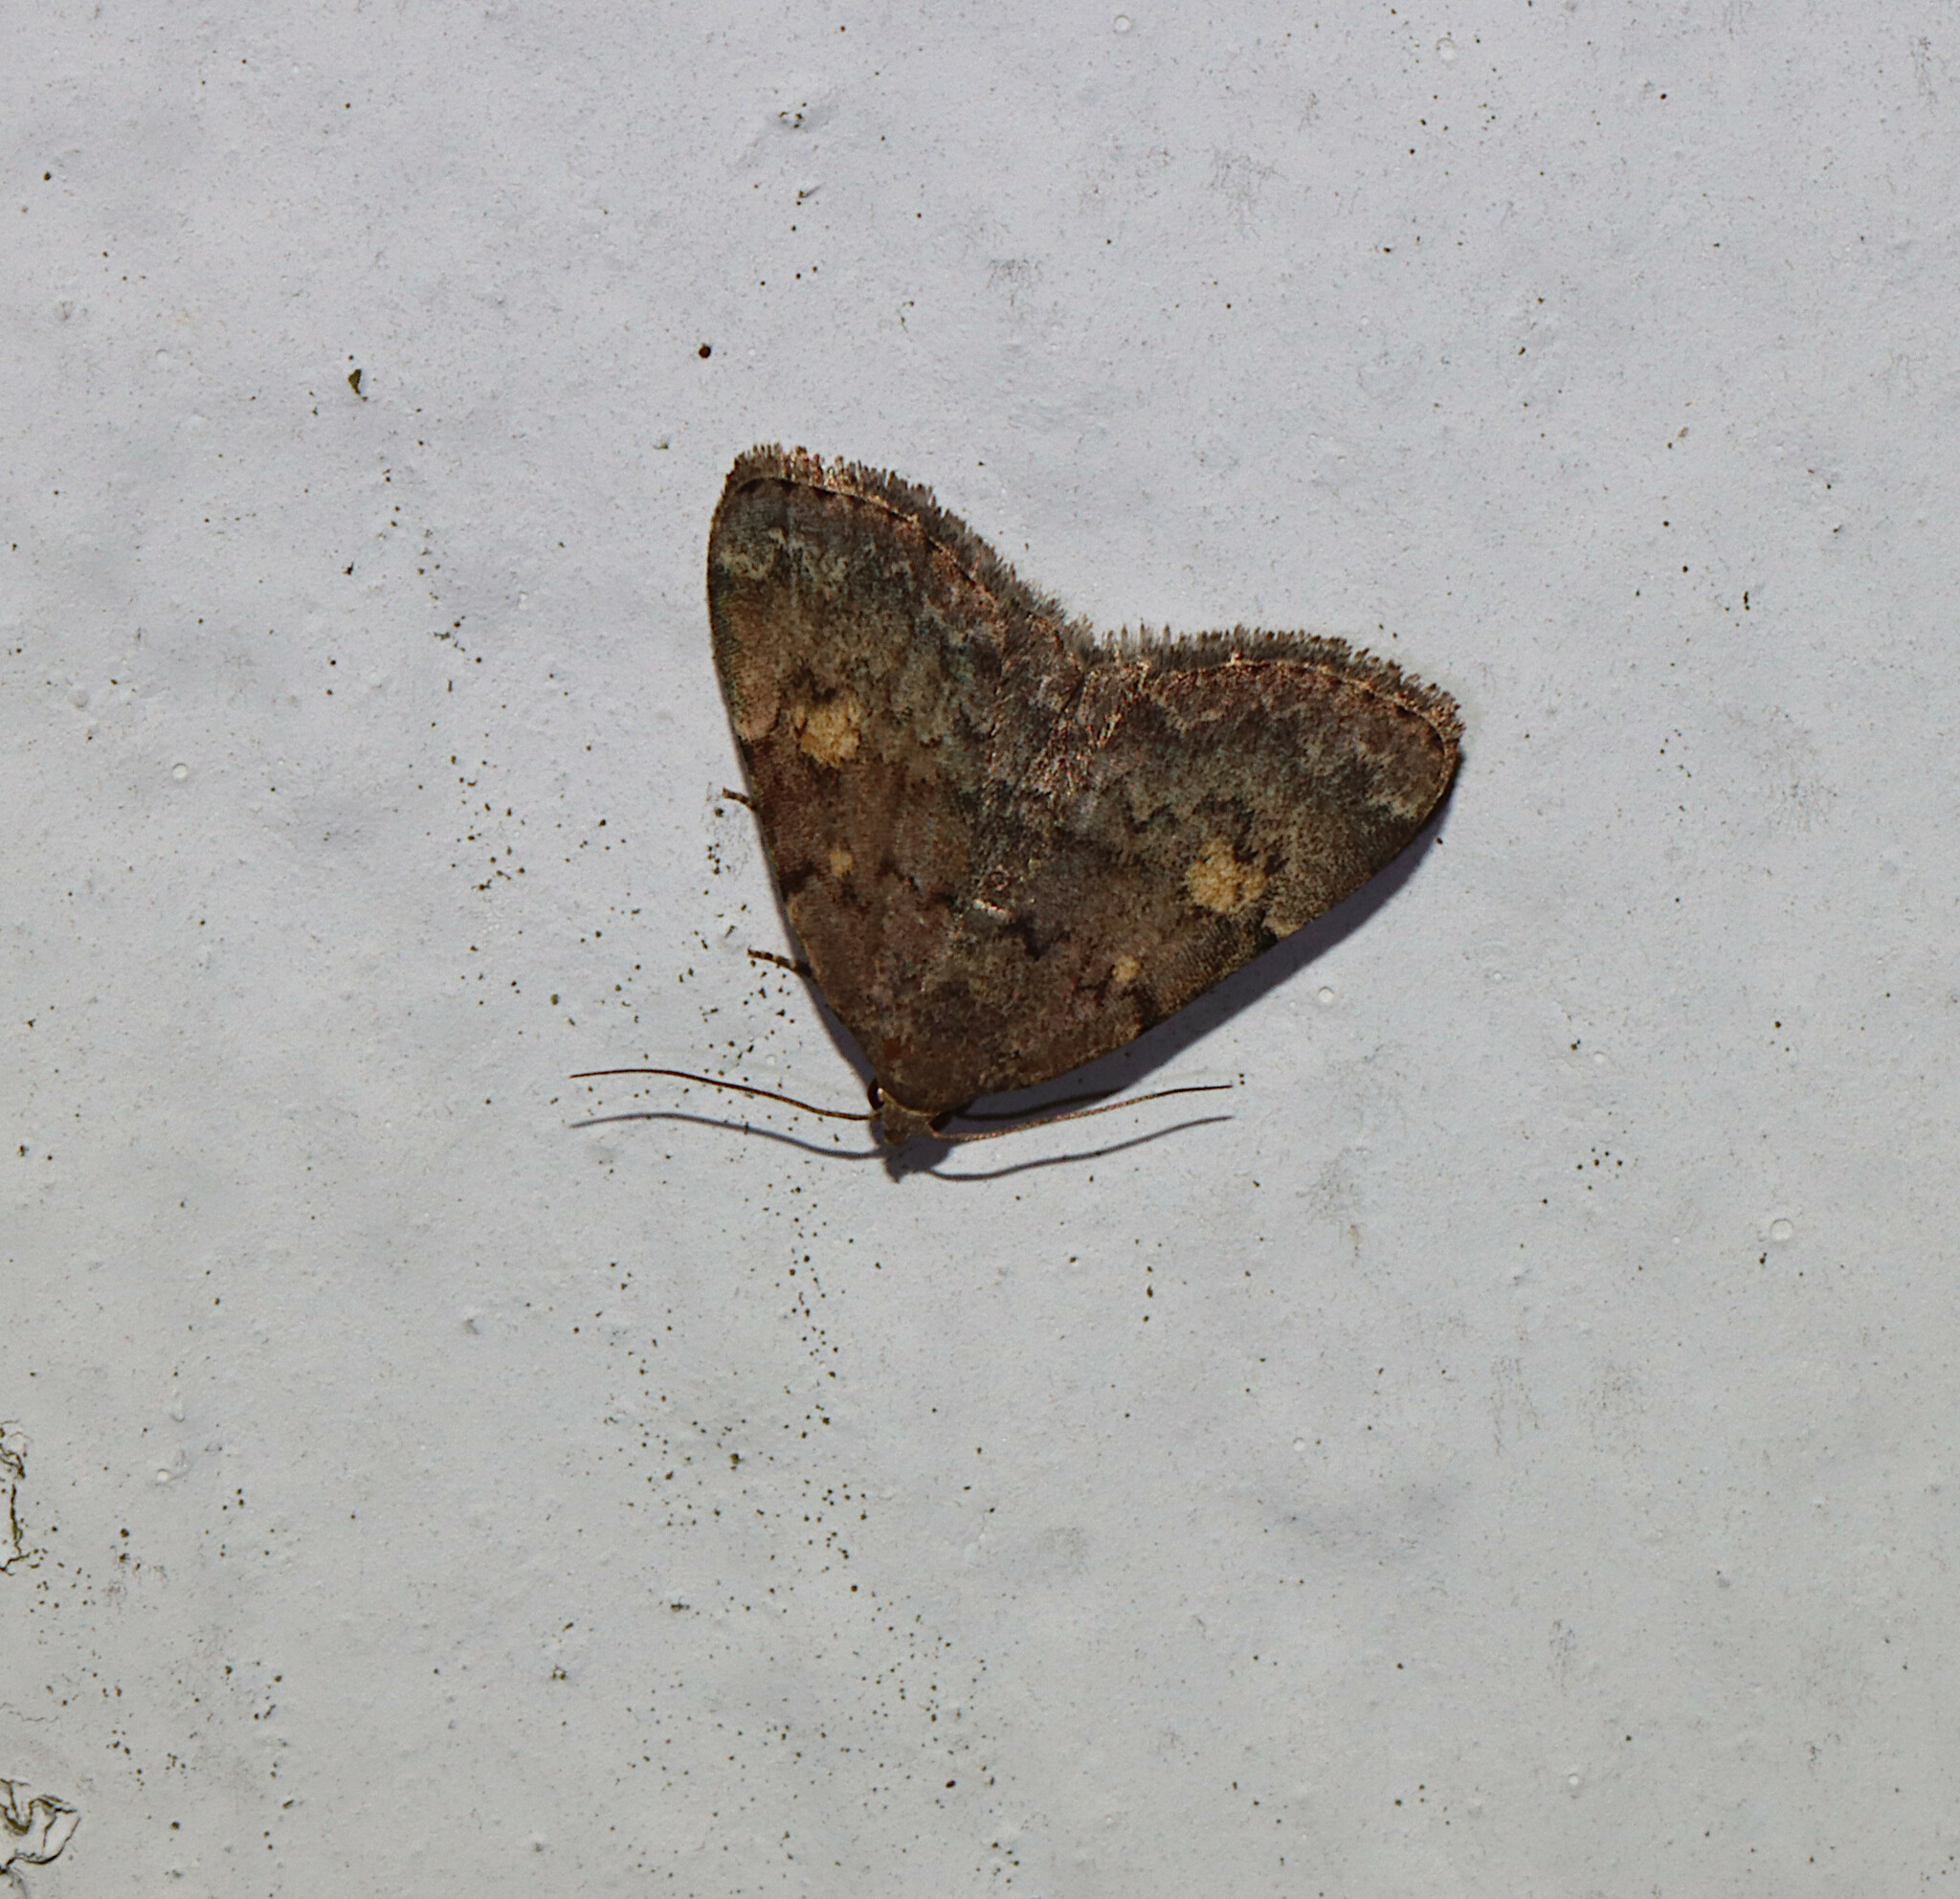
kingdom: Animalia
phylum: Arthropoda
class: Insecta
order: Lepidoptera
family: Erebidae
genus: Idia
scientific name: Idia aemula
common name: Common idia moth
